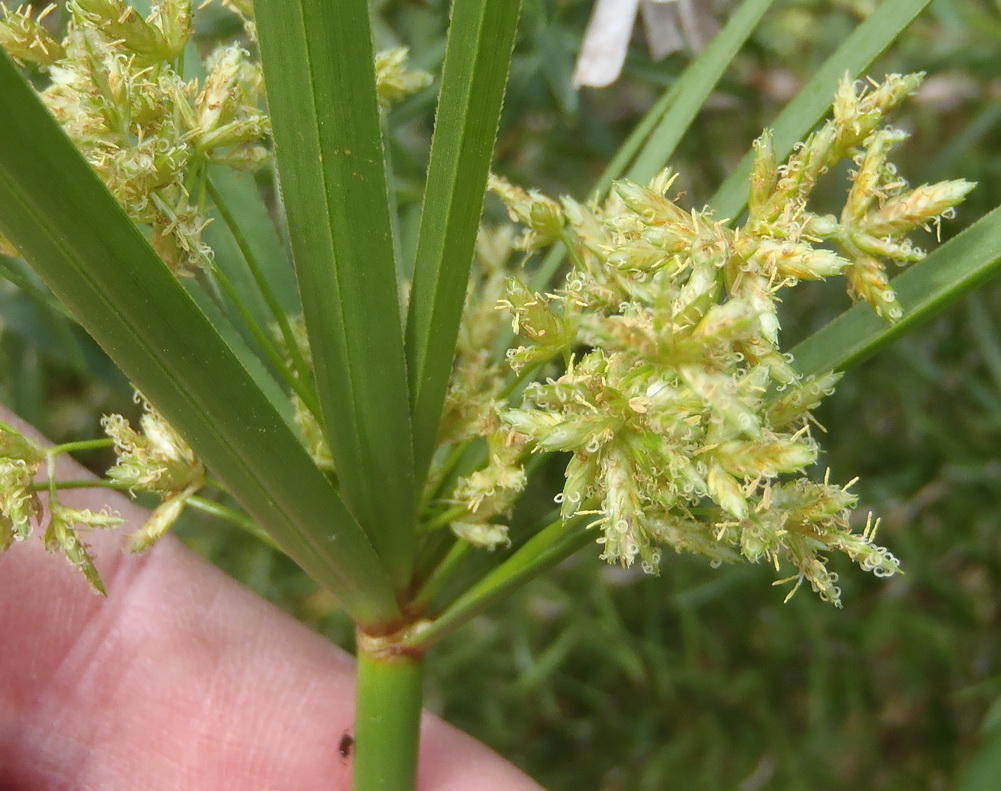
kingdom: Plantae
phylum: Tracheophyta
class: Liliopsida
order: Poales
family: Cyperaceae
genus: Cyperus
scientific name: Cyperus textilis
